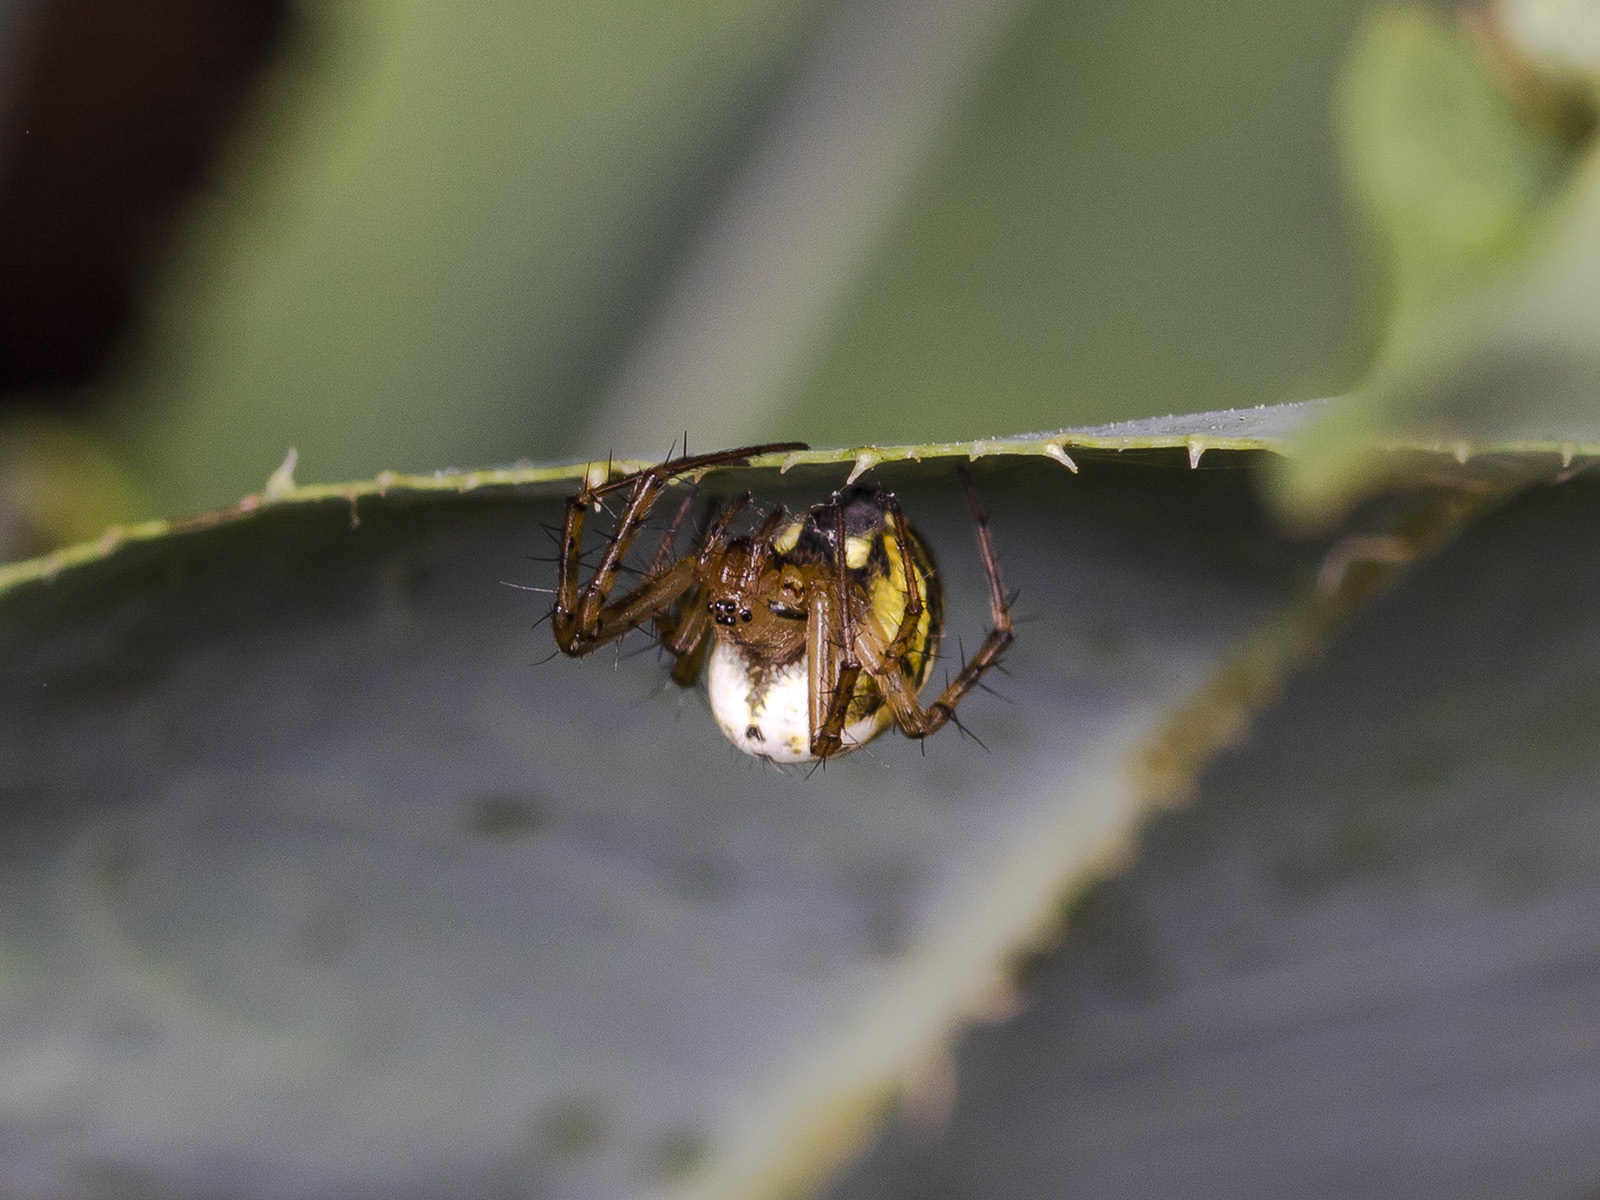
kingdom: Animalia
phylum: Arthropoda
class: Arachnida
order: Araneae
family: Araneidae
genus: Mangora
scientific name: Mangora acalypha
